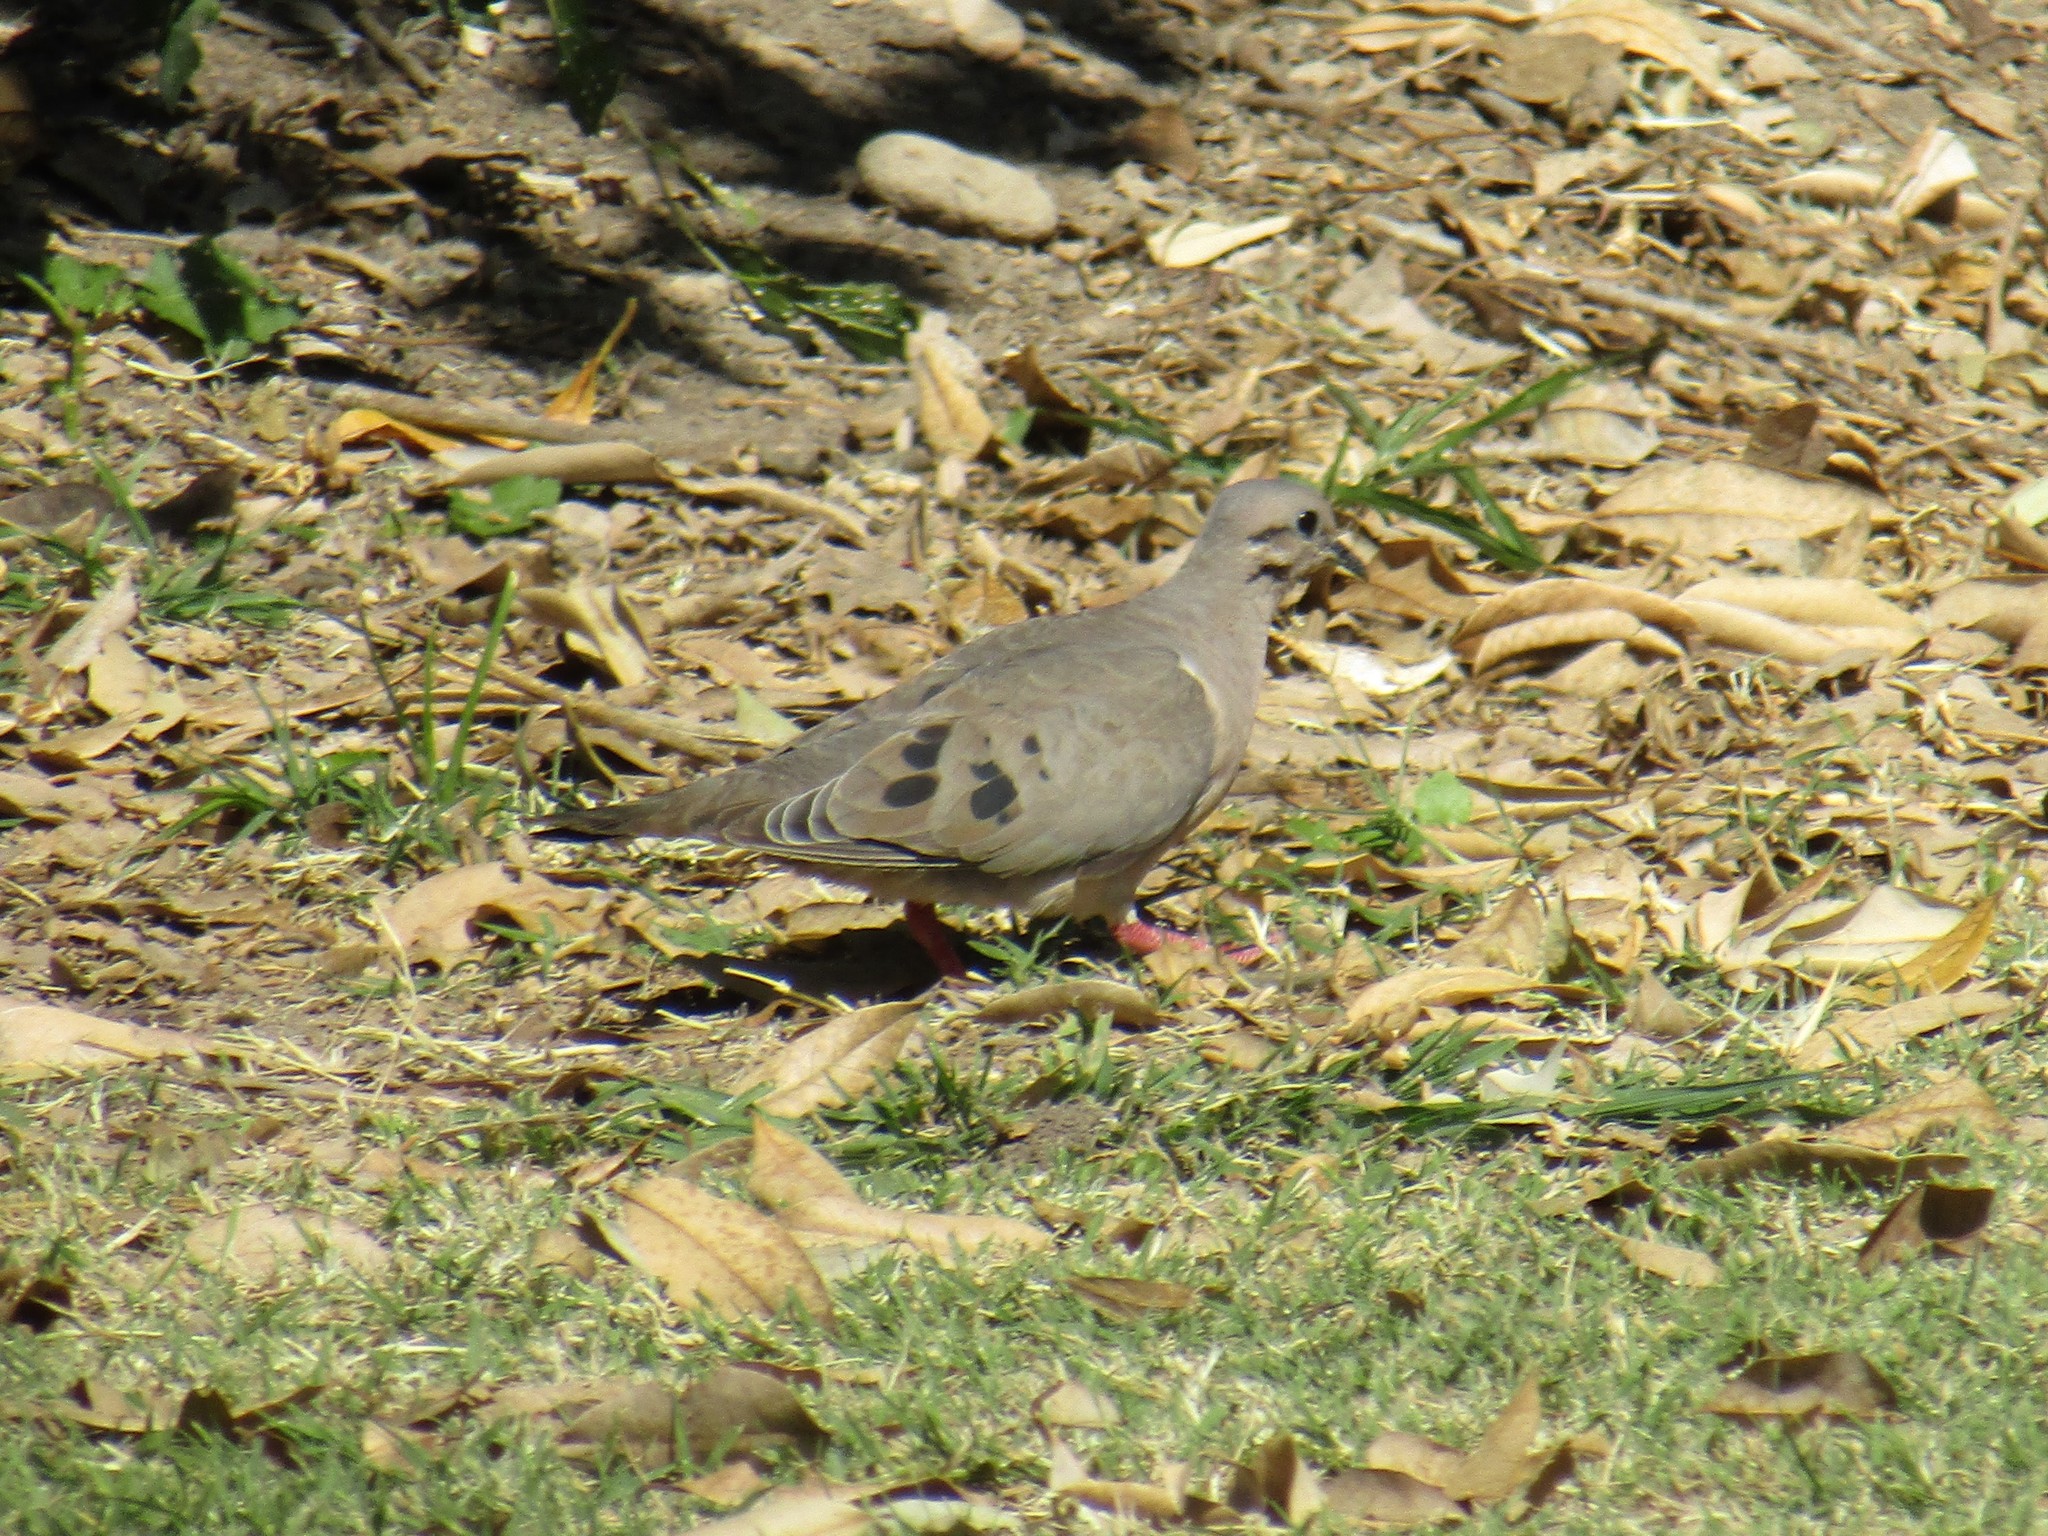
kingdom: Animalia
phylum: Chordata
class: Aves
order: Columbiformes
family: Columbidae
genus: Zenaida
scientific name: Zenaida auriculata
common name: Eared dove
